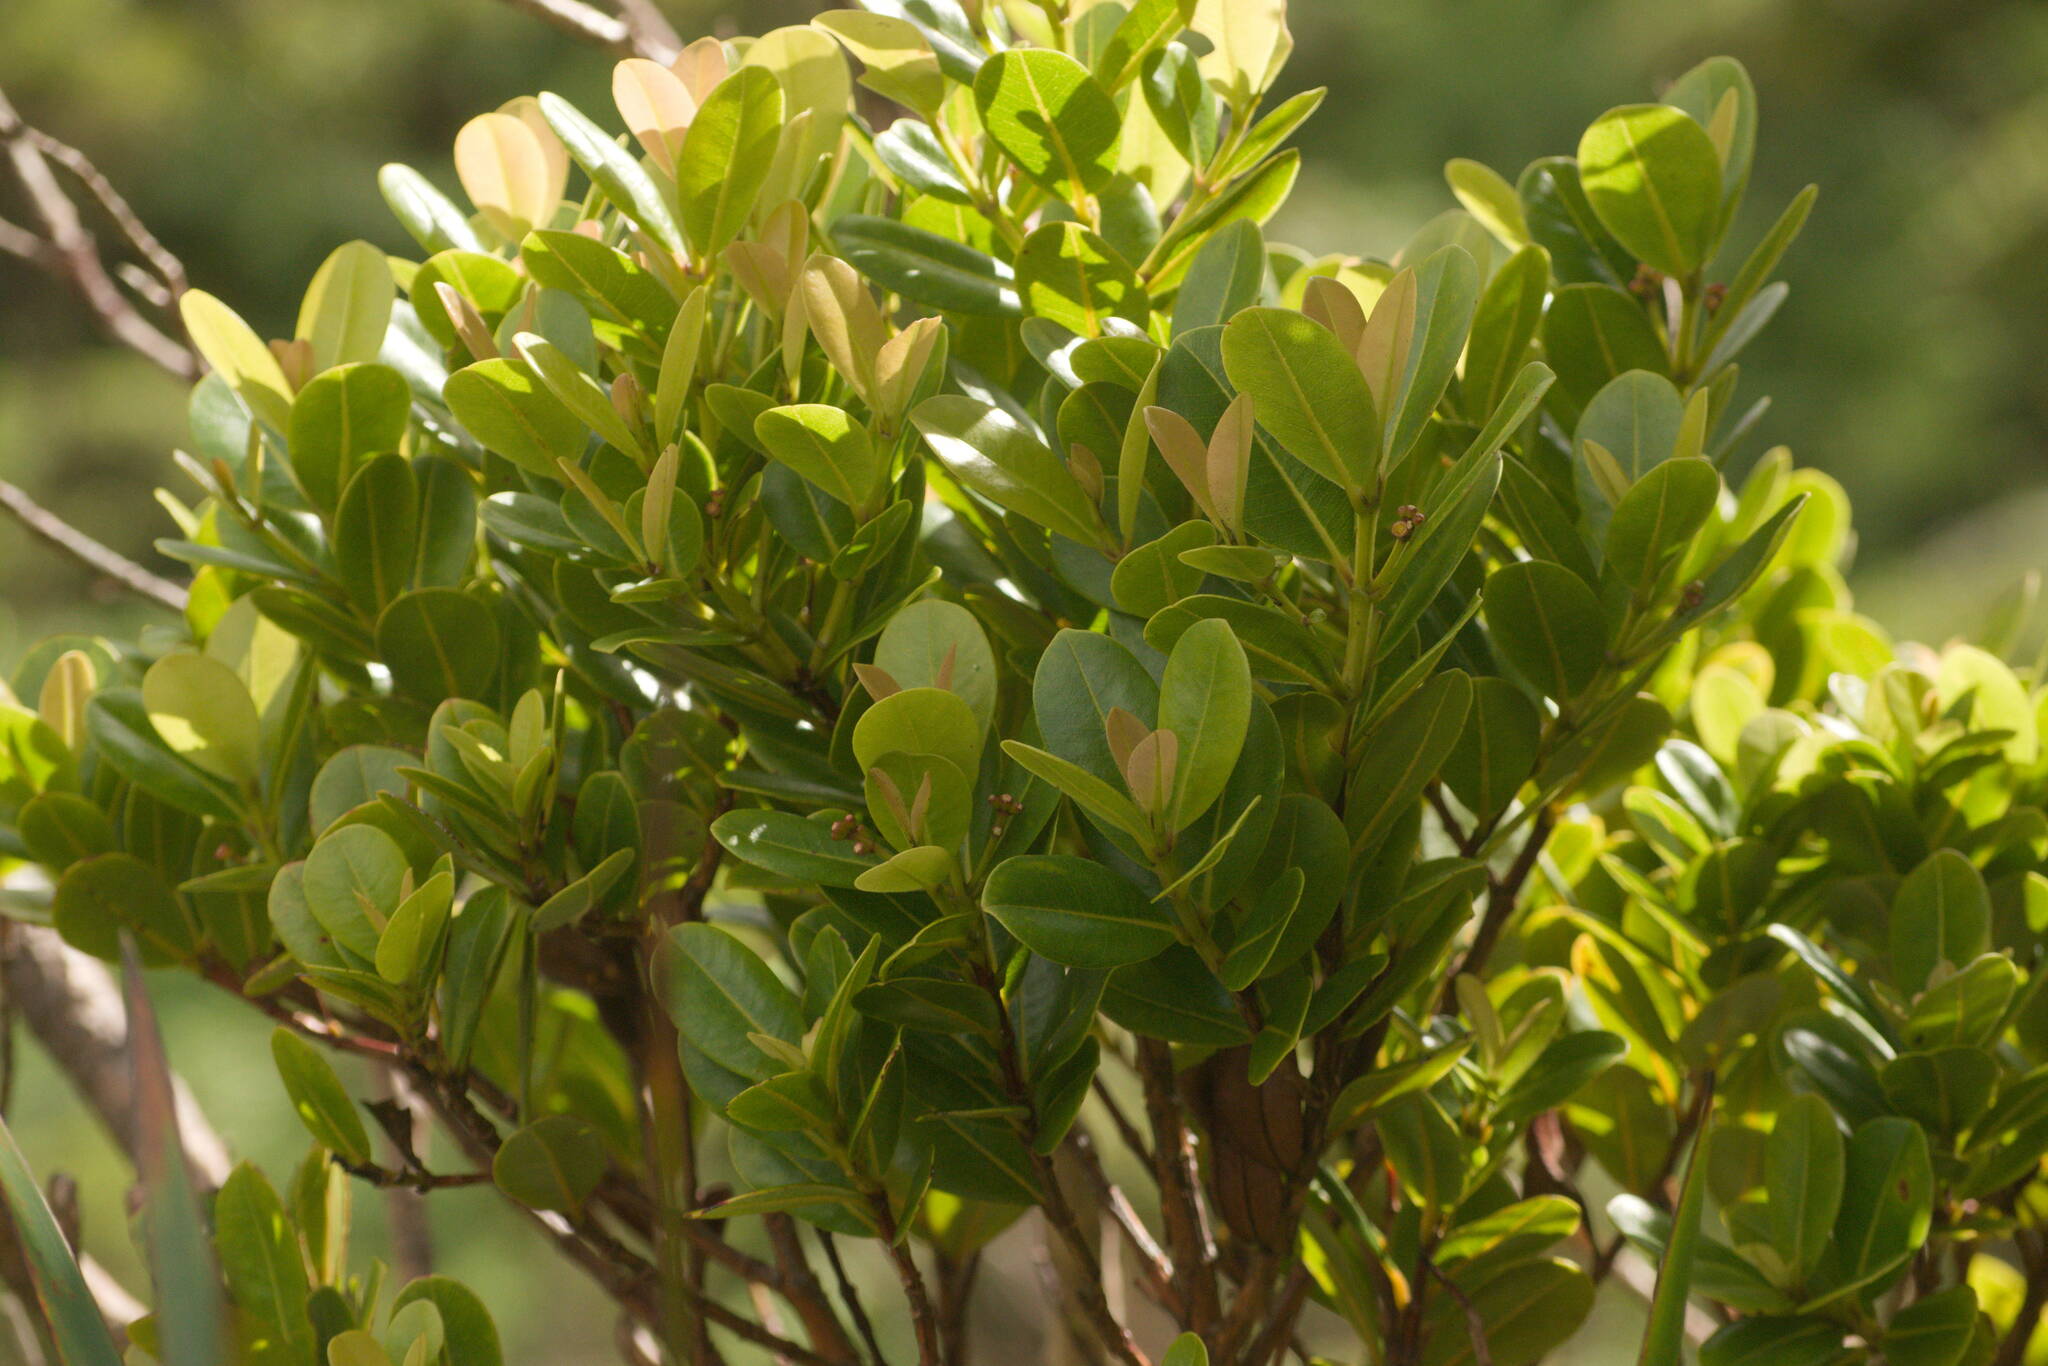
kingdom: Plantae
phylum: Tracheophyta
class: Magnoliopsida
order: Myrtales
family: Myrtaceae
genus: Syzygium
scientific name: Syzygium sandwicense
